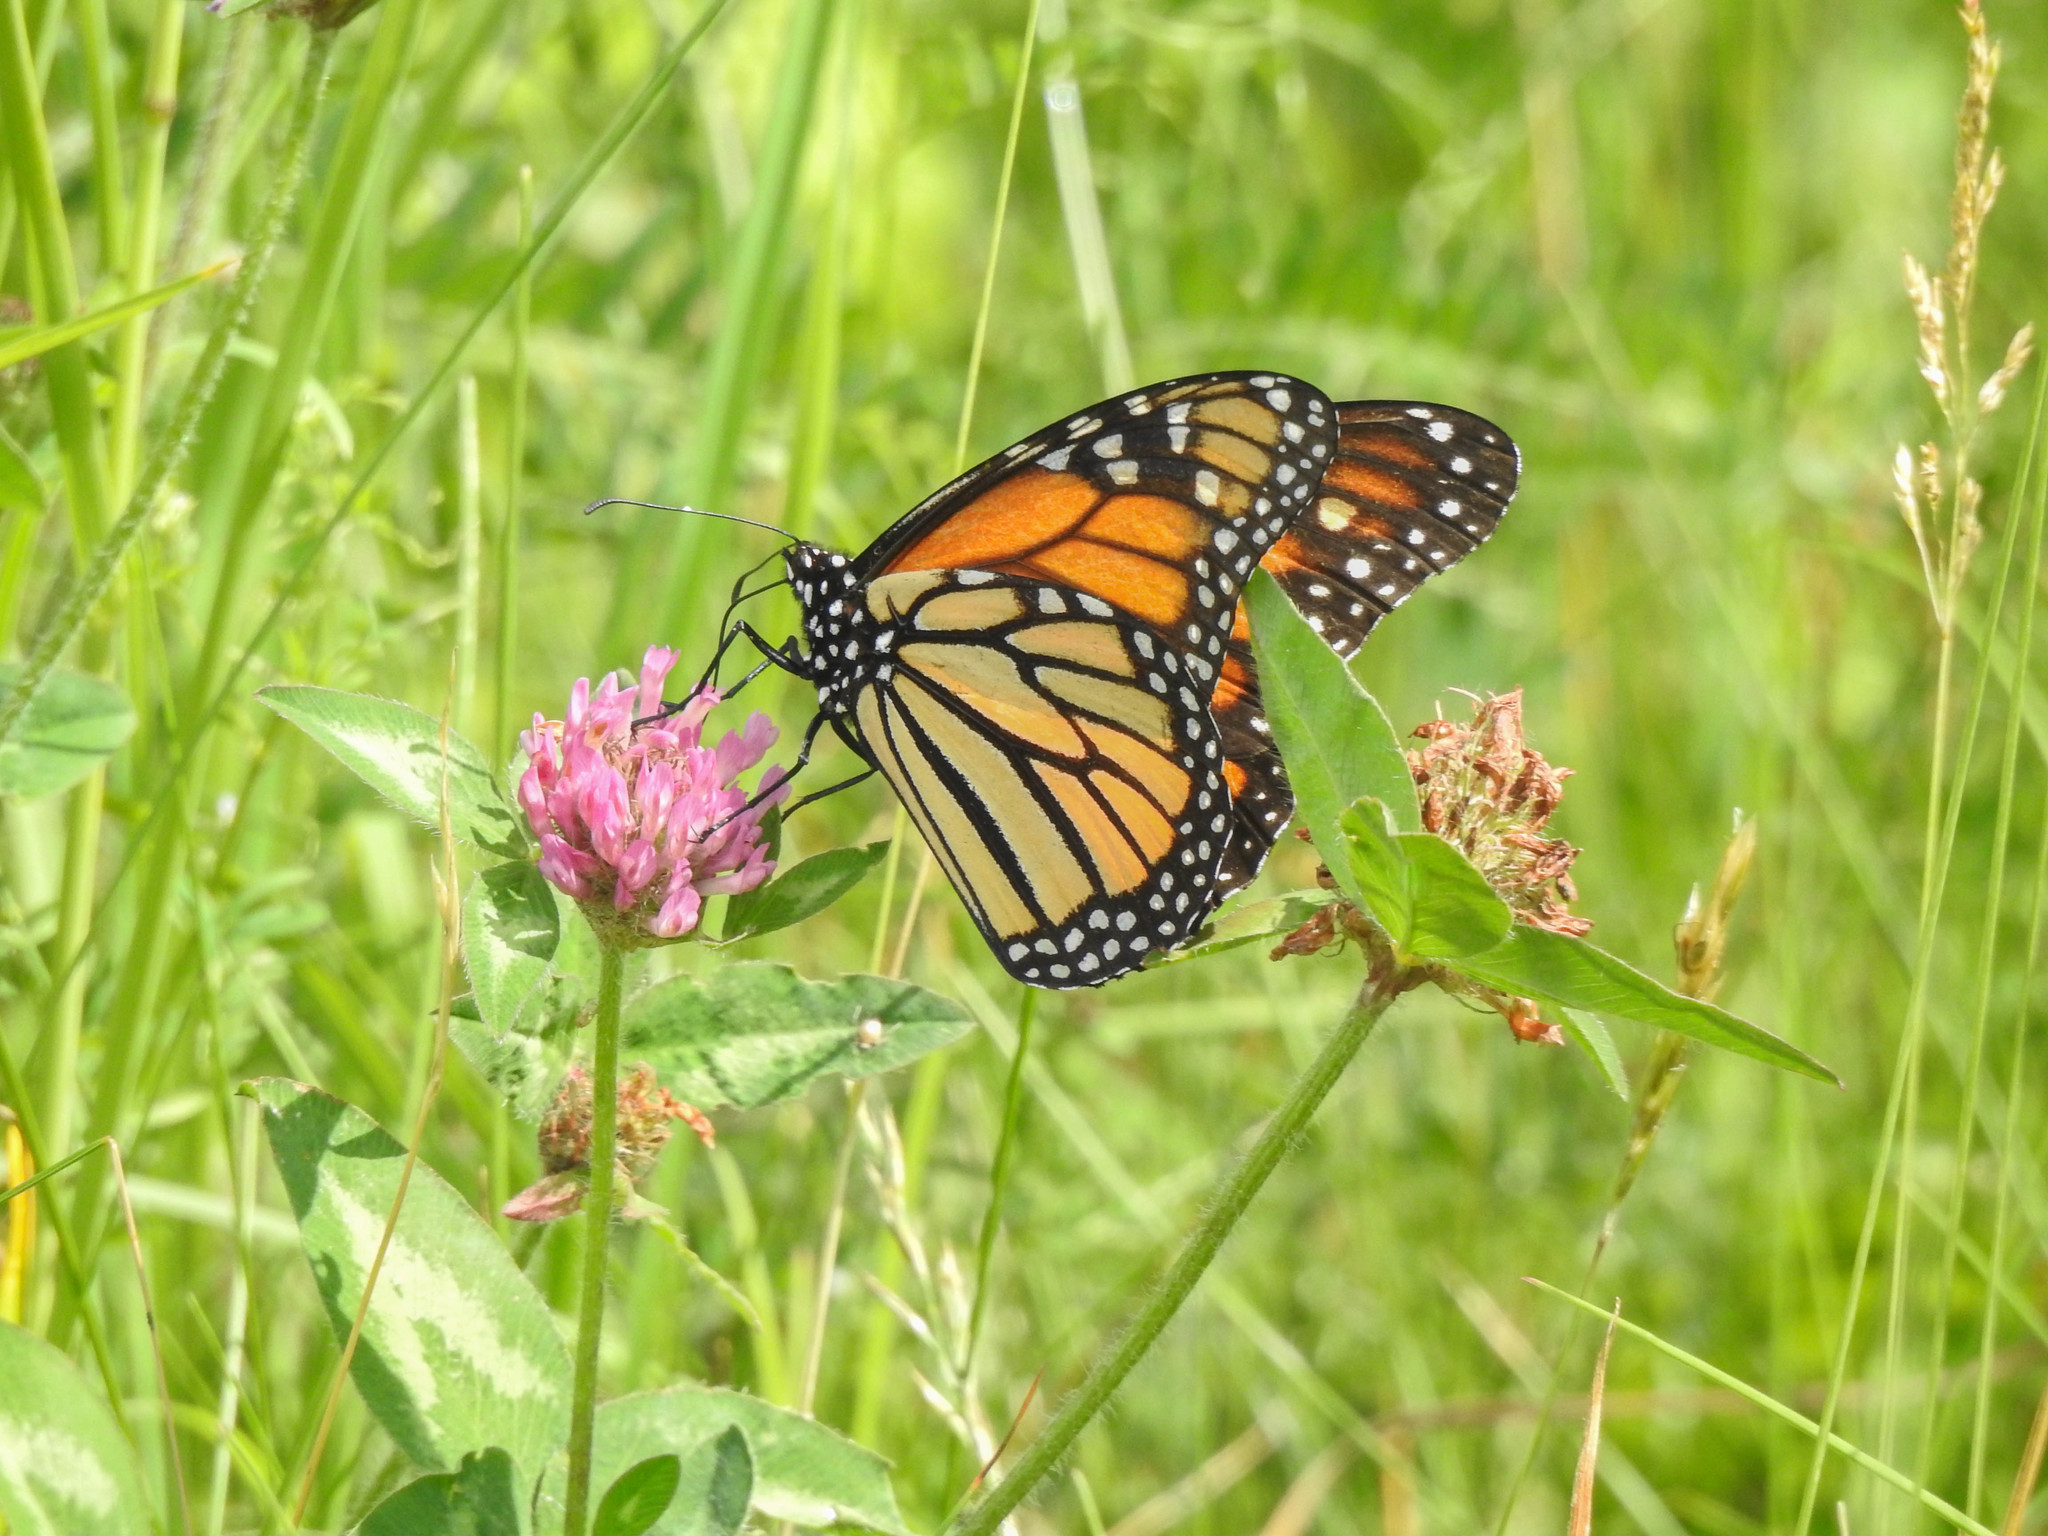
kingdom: Animalia
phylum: Arthropoda
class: Insecta
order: Lepidoptera
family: Nymphalidae
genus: Danaus
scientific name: Danaus plexippus
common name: Monarch
